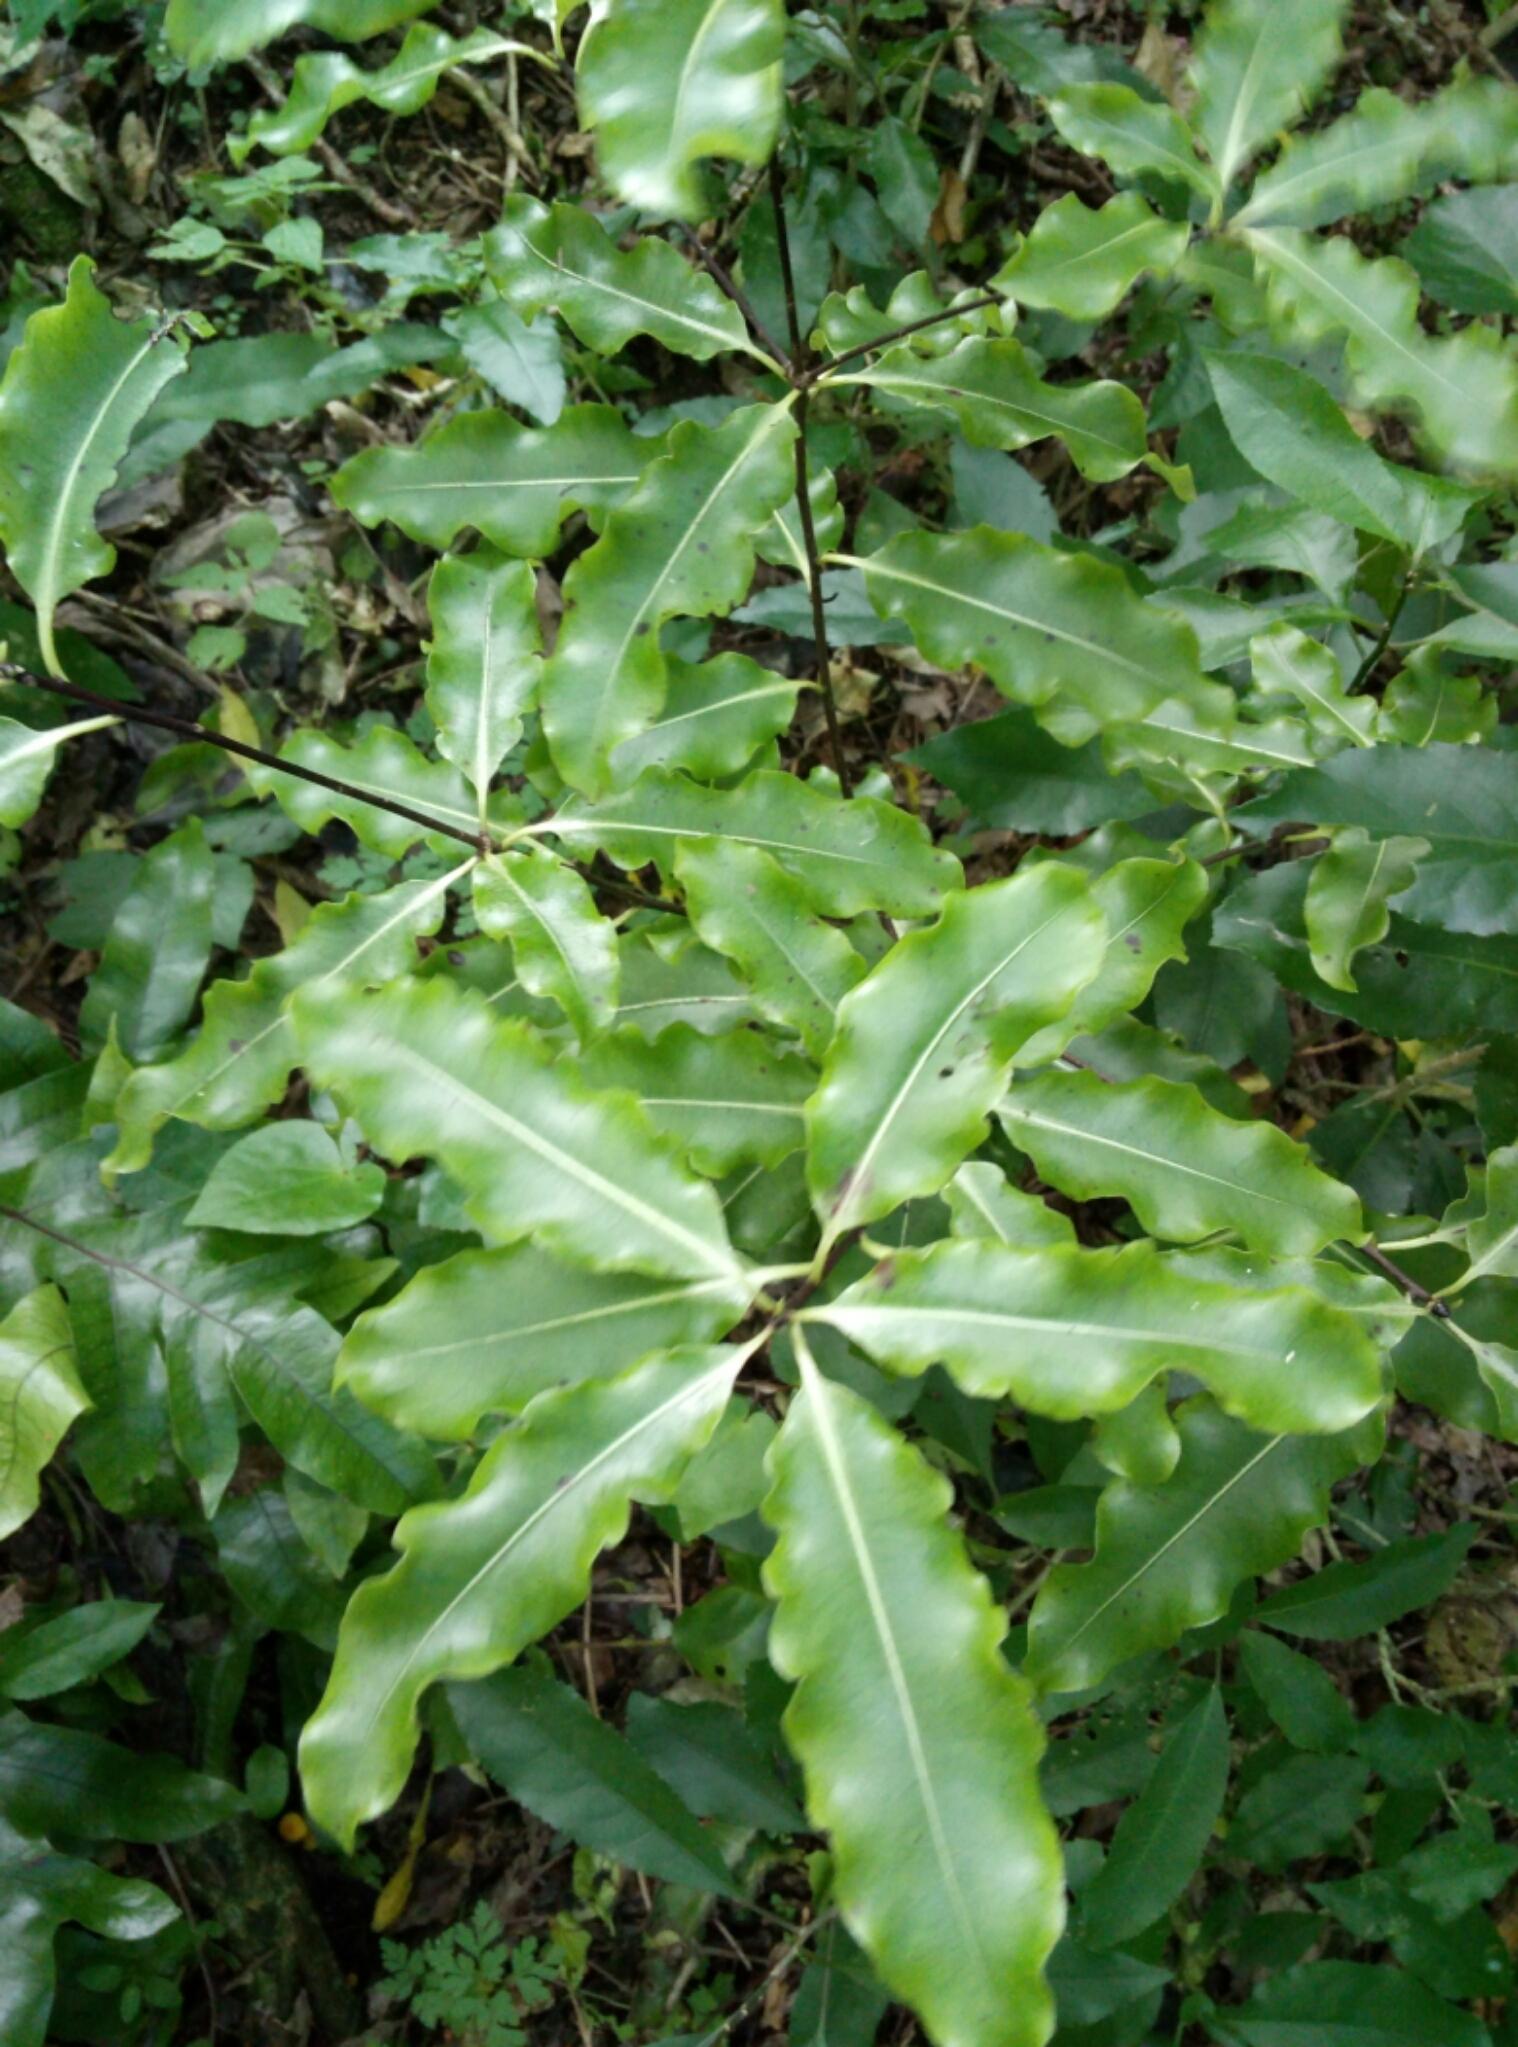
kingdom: Plantae
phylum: Tracheophyta
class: Magnoliopsida
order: Apiales
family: Pittosporaceae
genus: Pittosporum
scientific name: Pittosporum eugenioides
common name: Lemonwood
